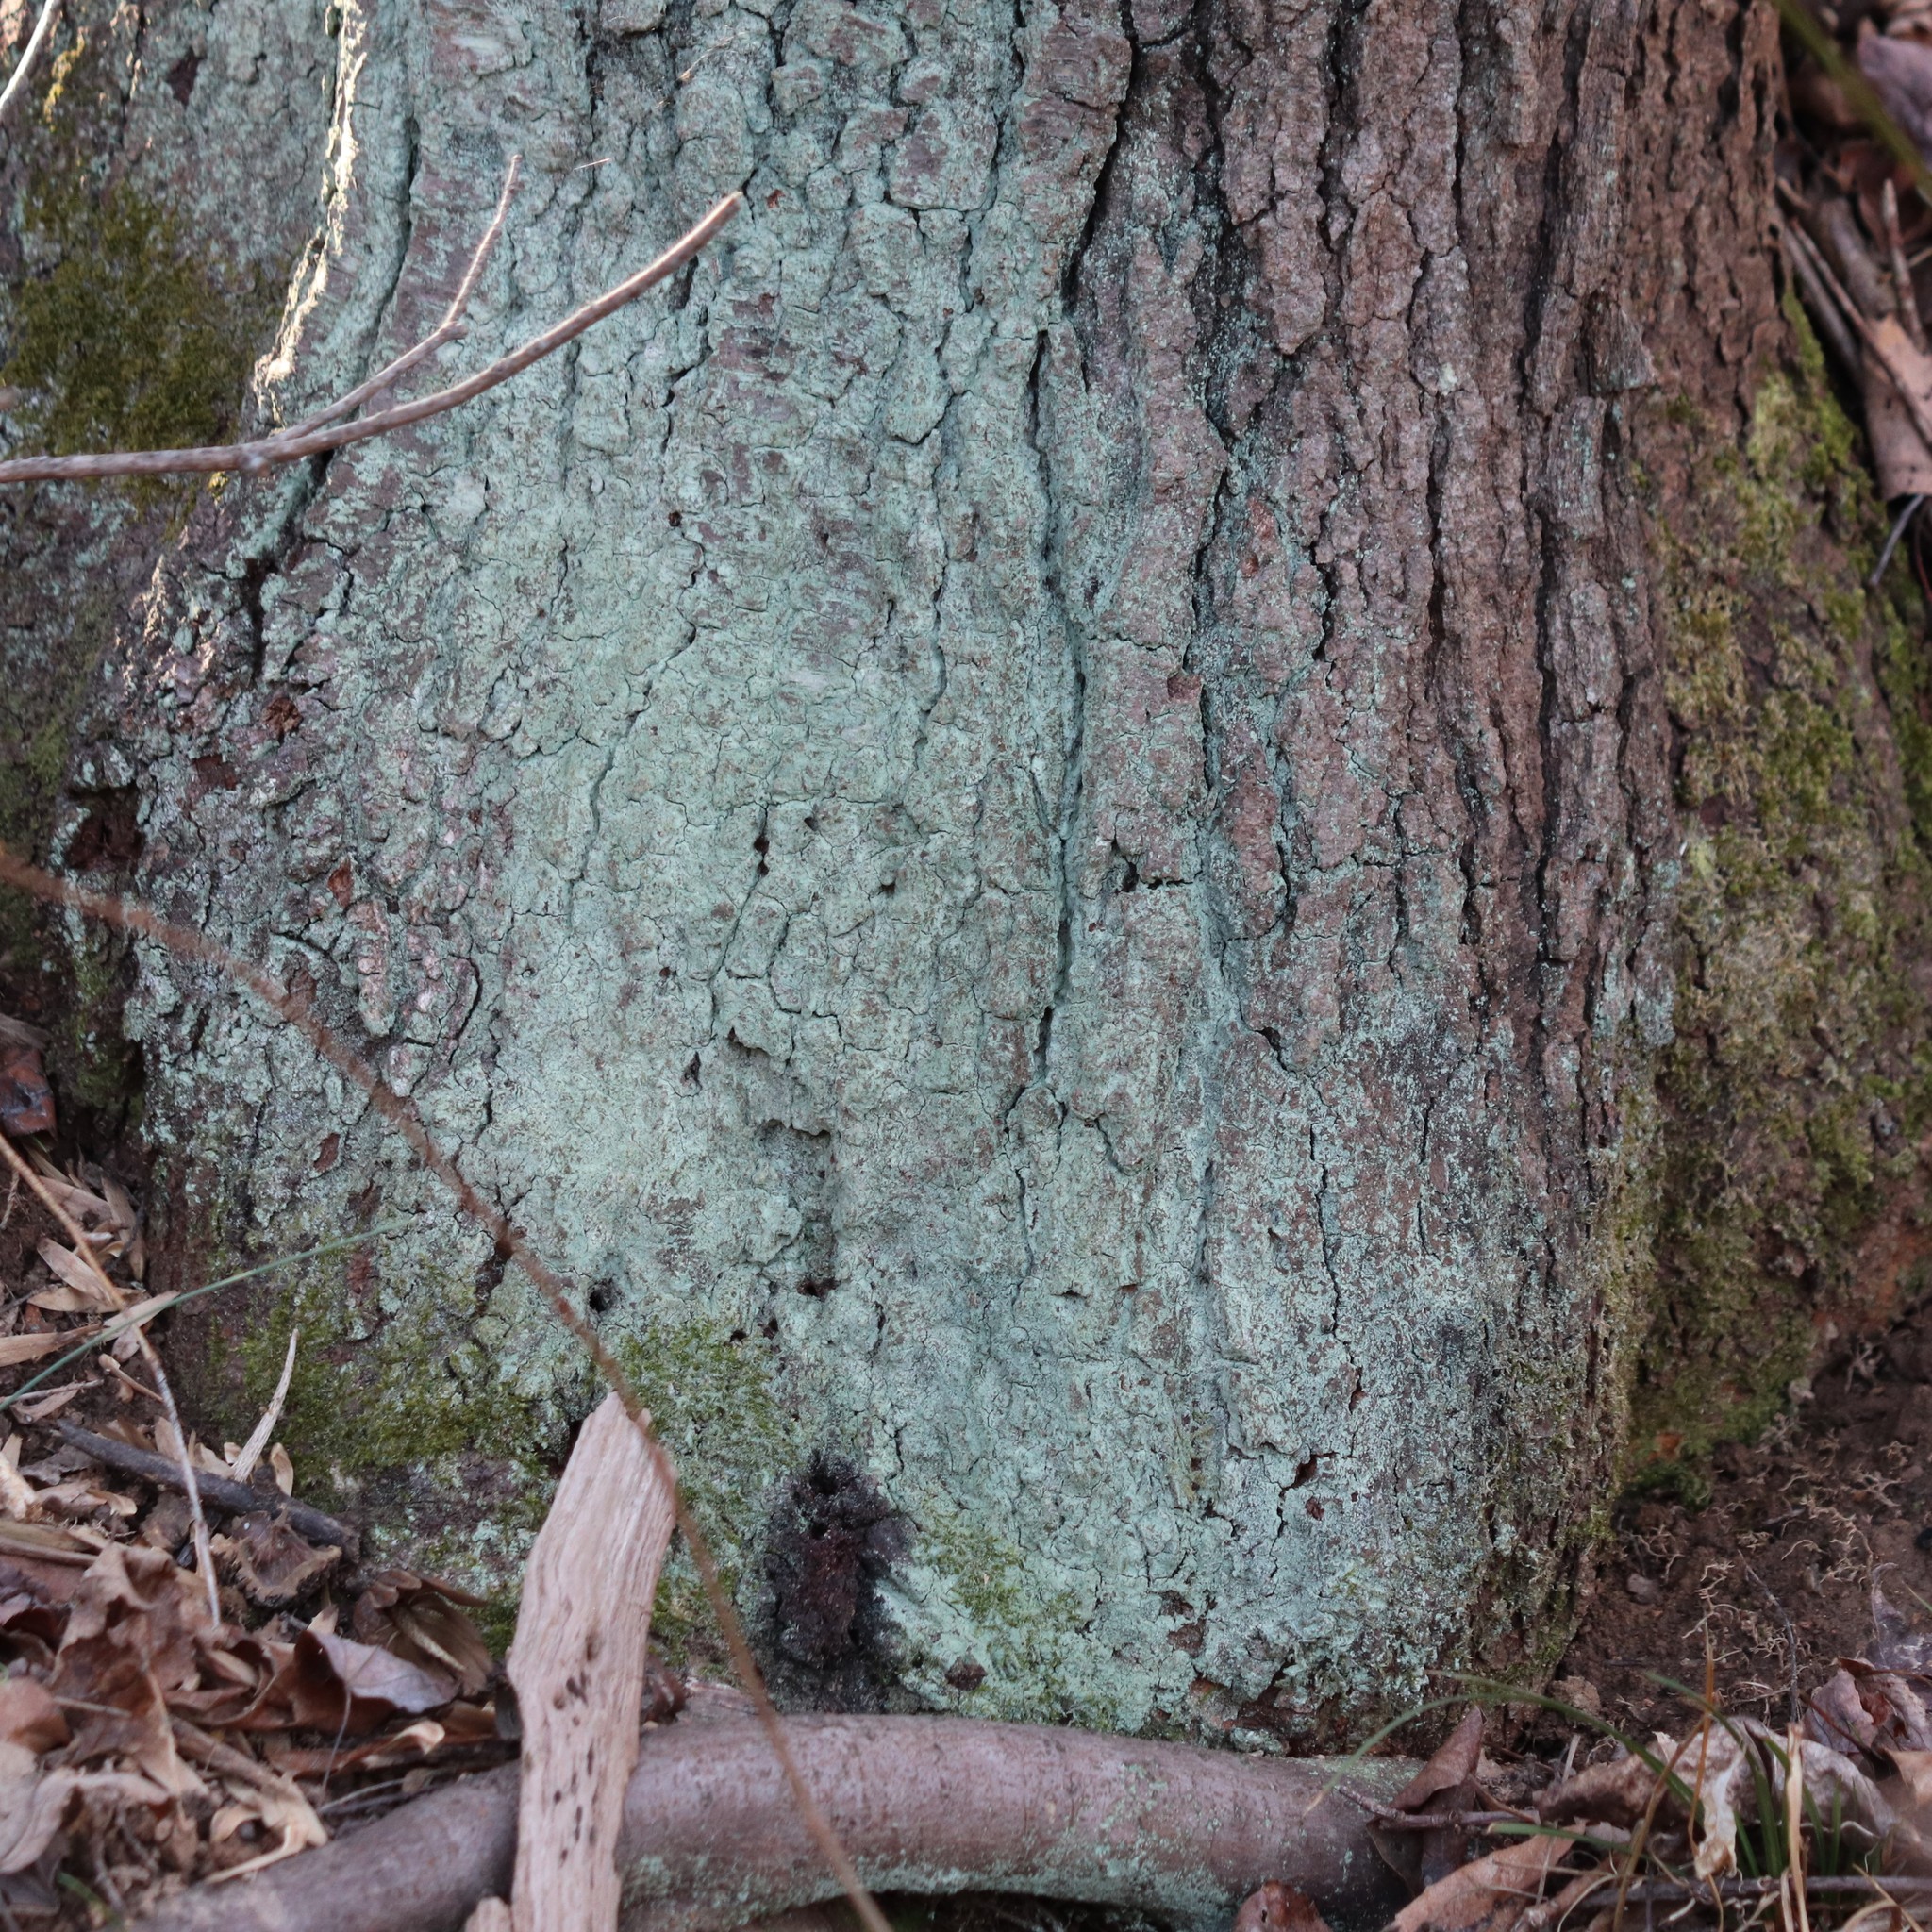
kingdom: Fungi
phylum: Ascomycota
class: Lecanoromycetes
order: Lecanorales
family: Stereocaulaceae
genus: Lepraria
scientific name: Lepraria lobificans
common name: Fluffy dust lichen
